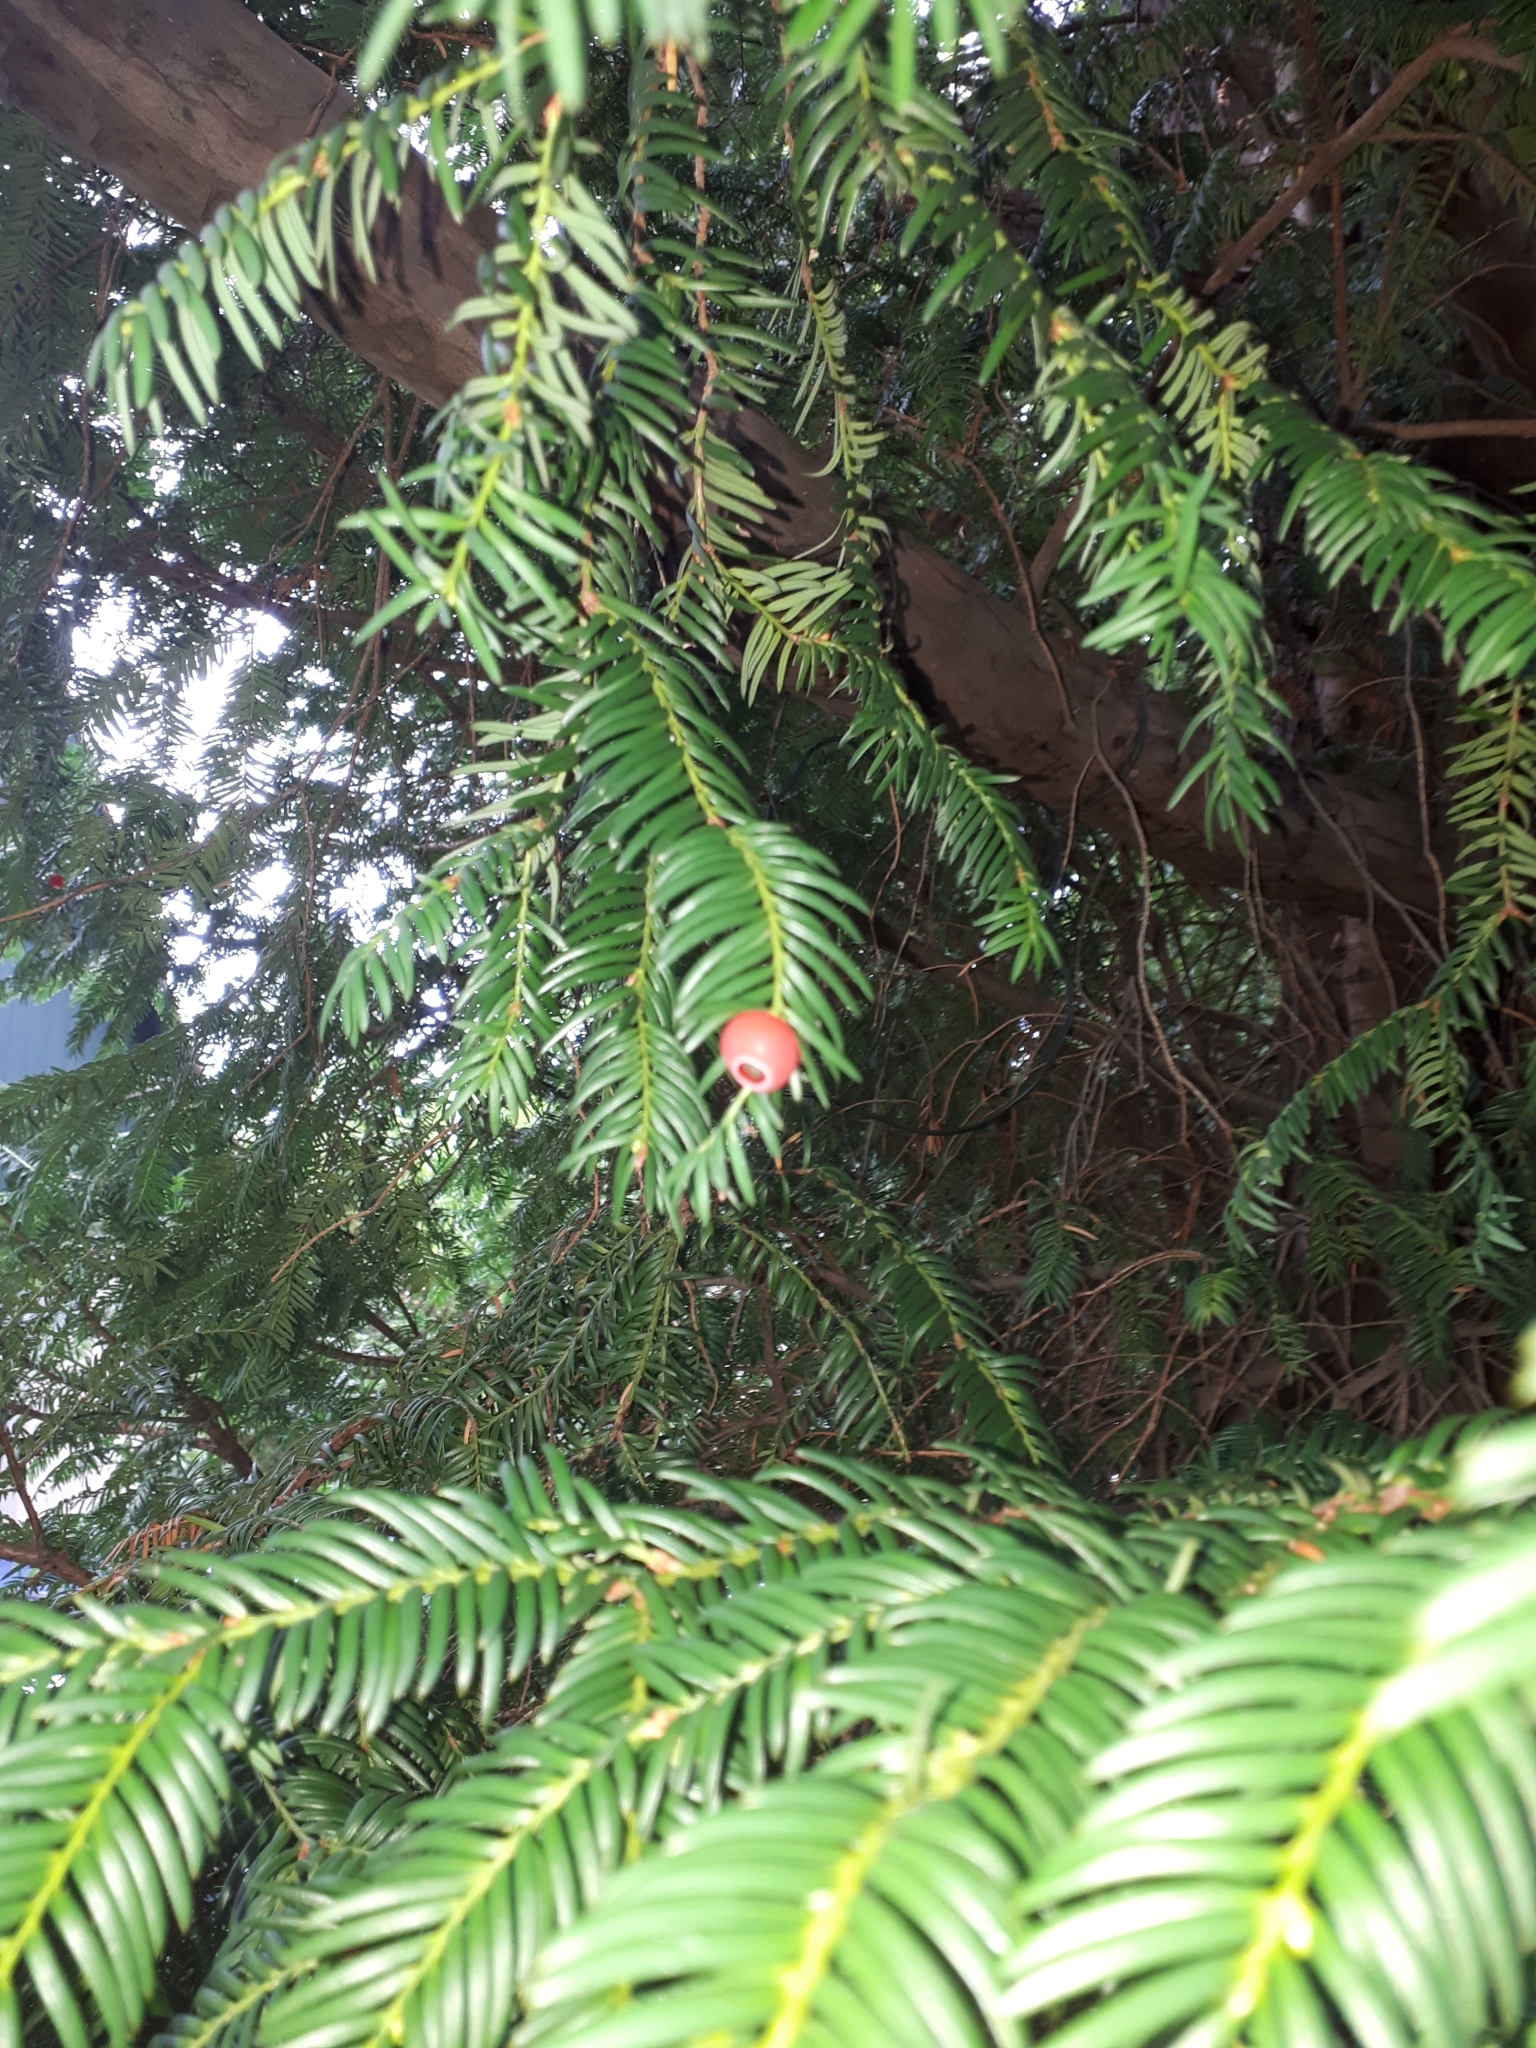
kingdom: Plantae
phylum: Tracheophyta
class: Pinopsida
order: Pinales
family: Taxaceae
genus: Taxus
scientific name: Taxus baccata
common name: Yew
